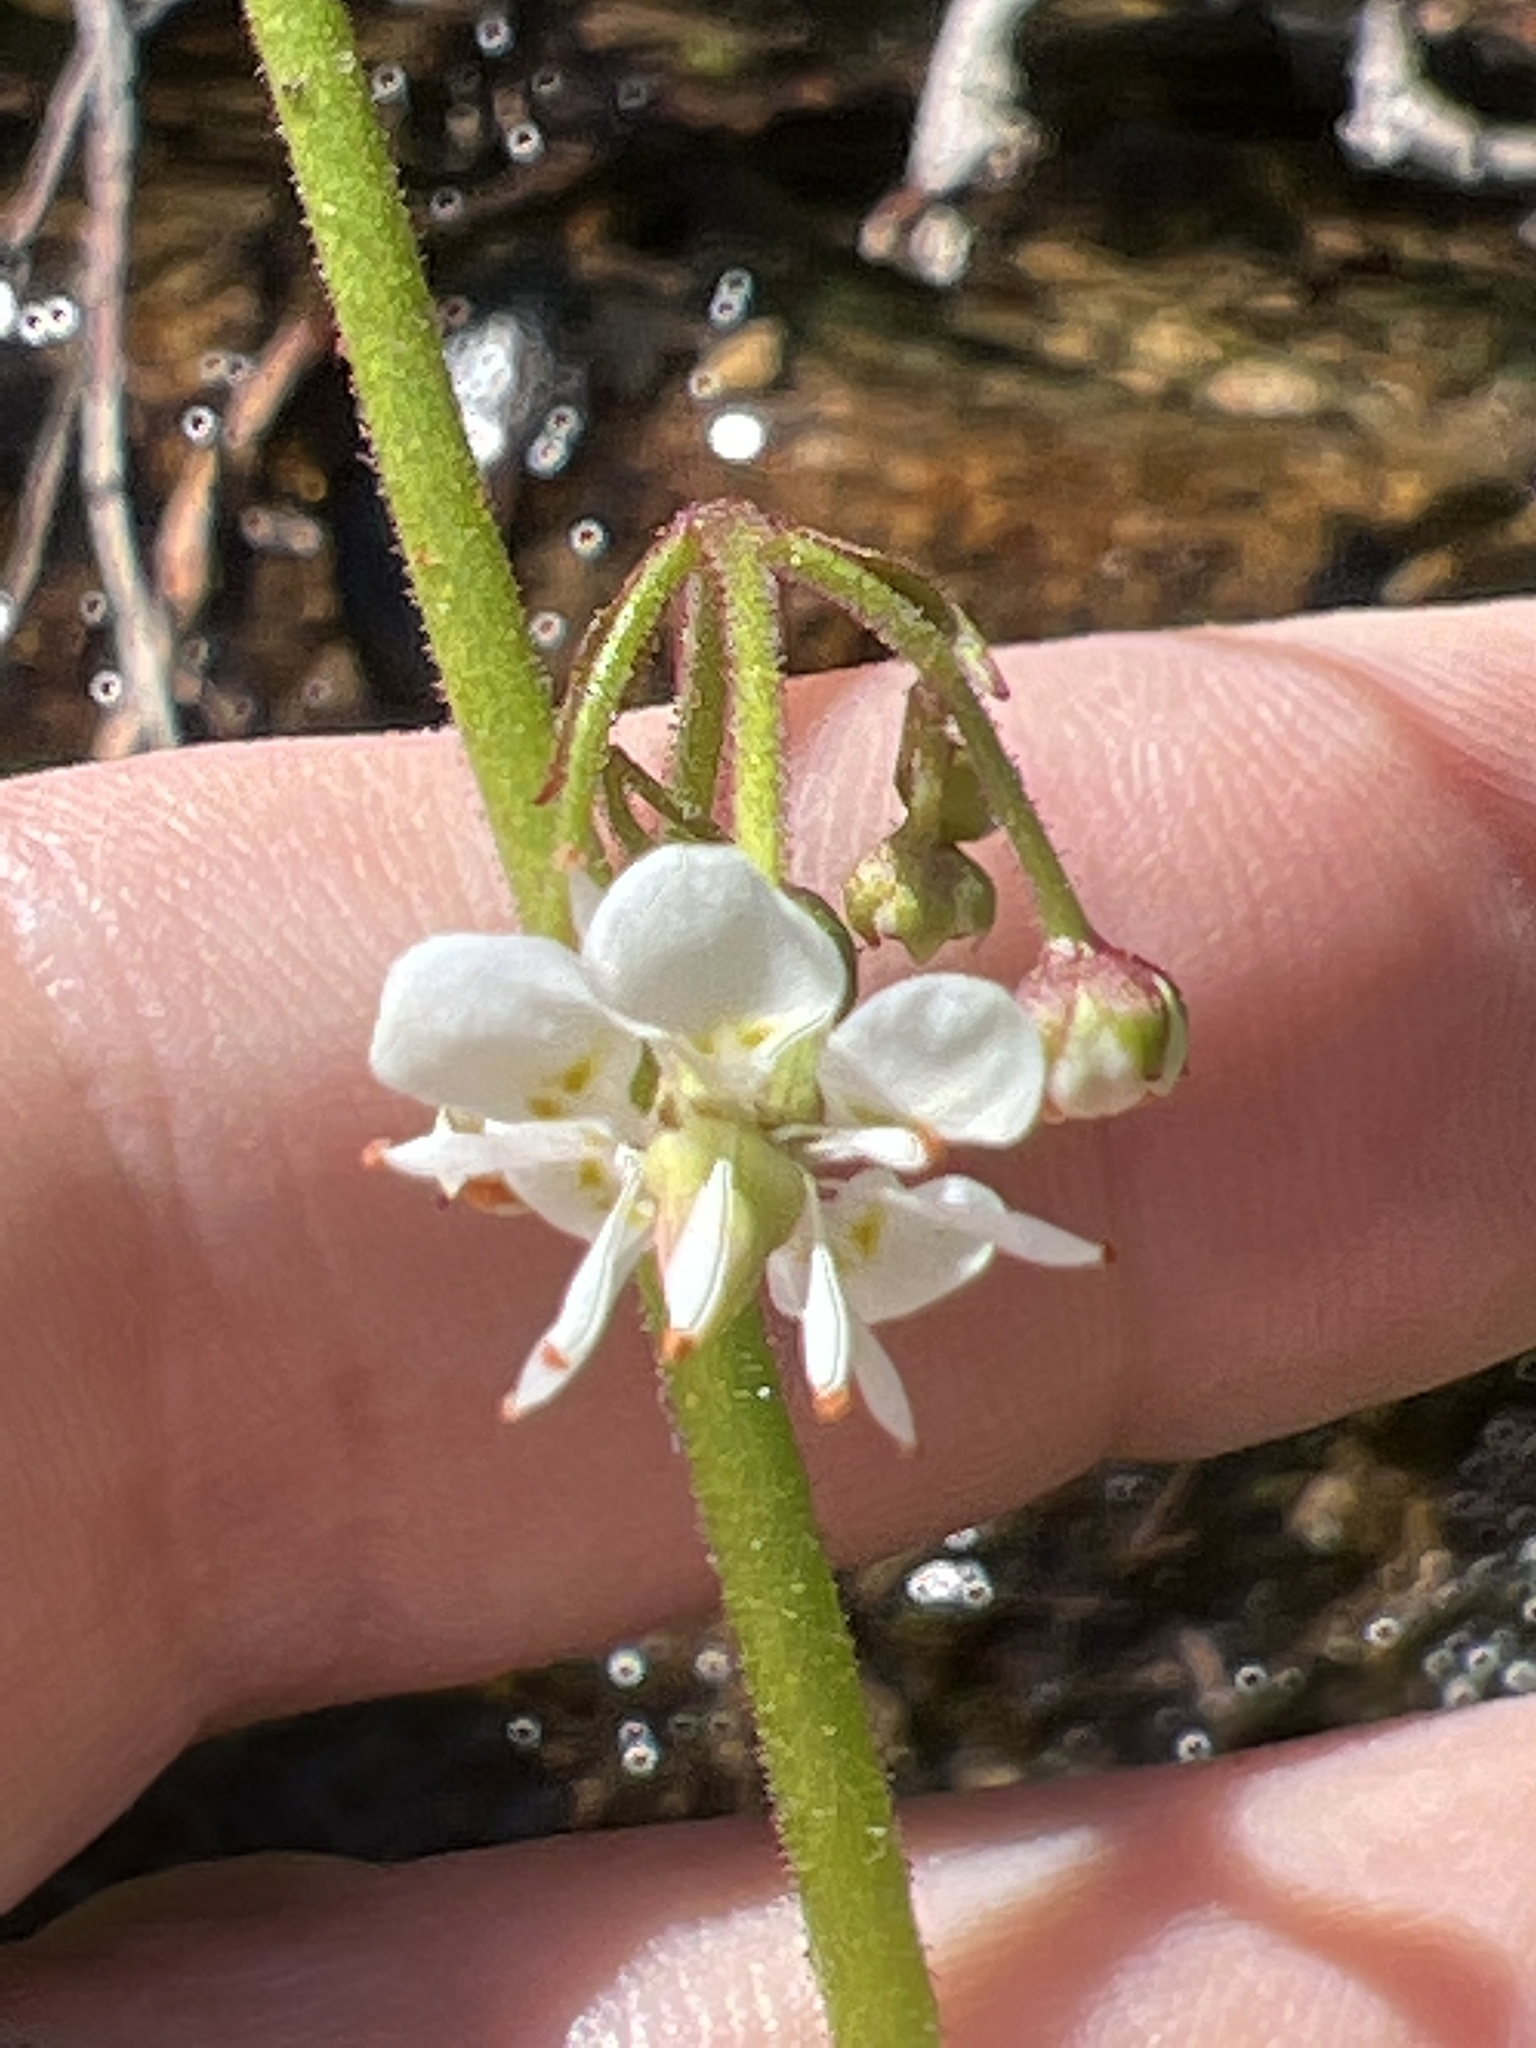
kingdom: Plantae
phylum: Tracheophyta
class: Magnoliopsida
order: Saxifragales
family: Saxifragaceae
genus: Micranthes
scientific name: Micranthes odontoloma
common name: Brook saxifrage
